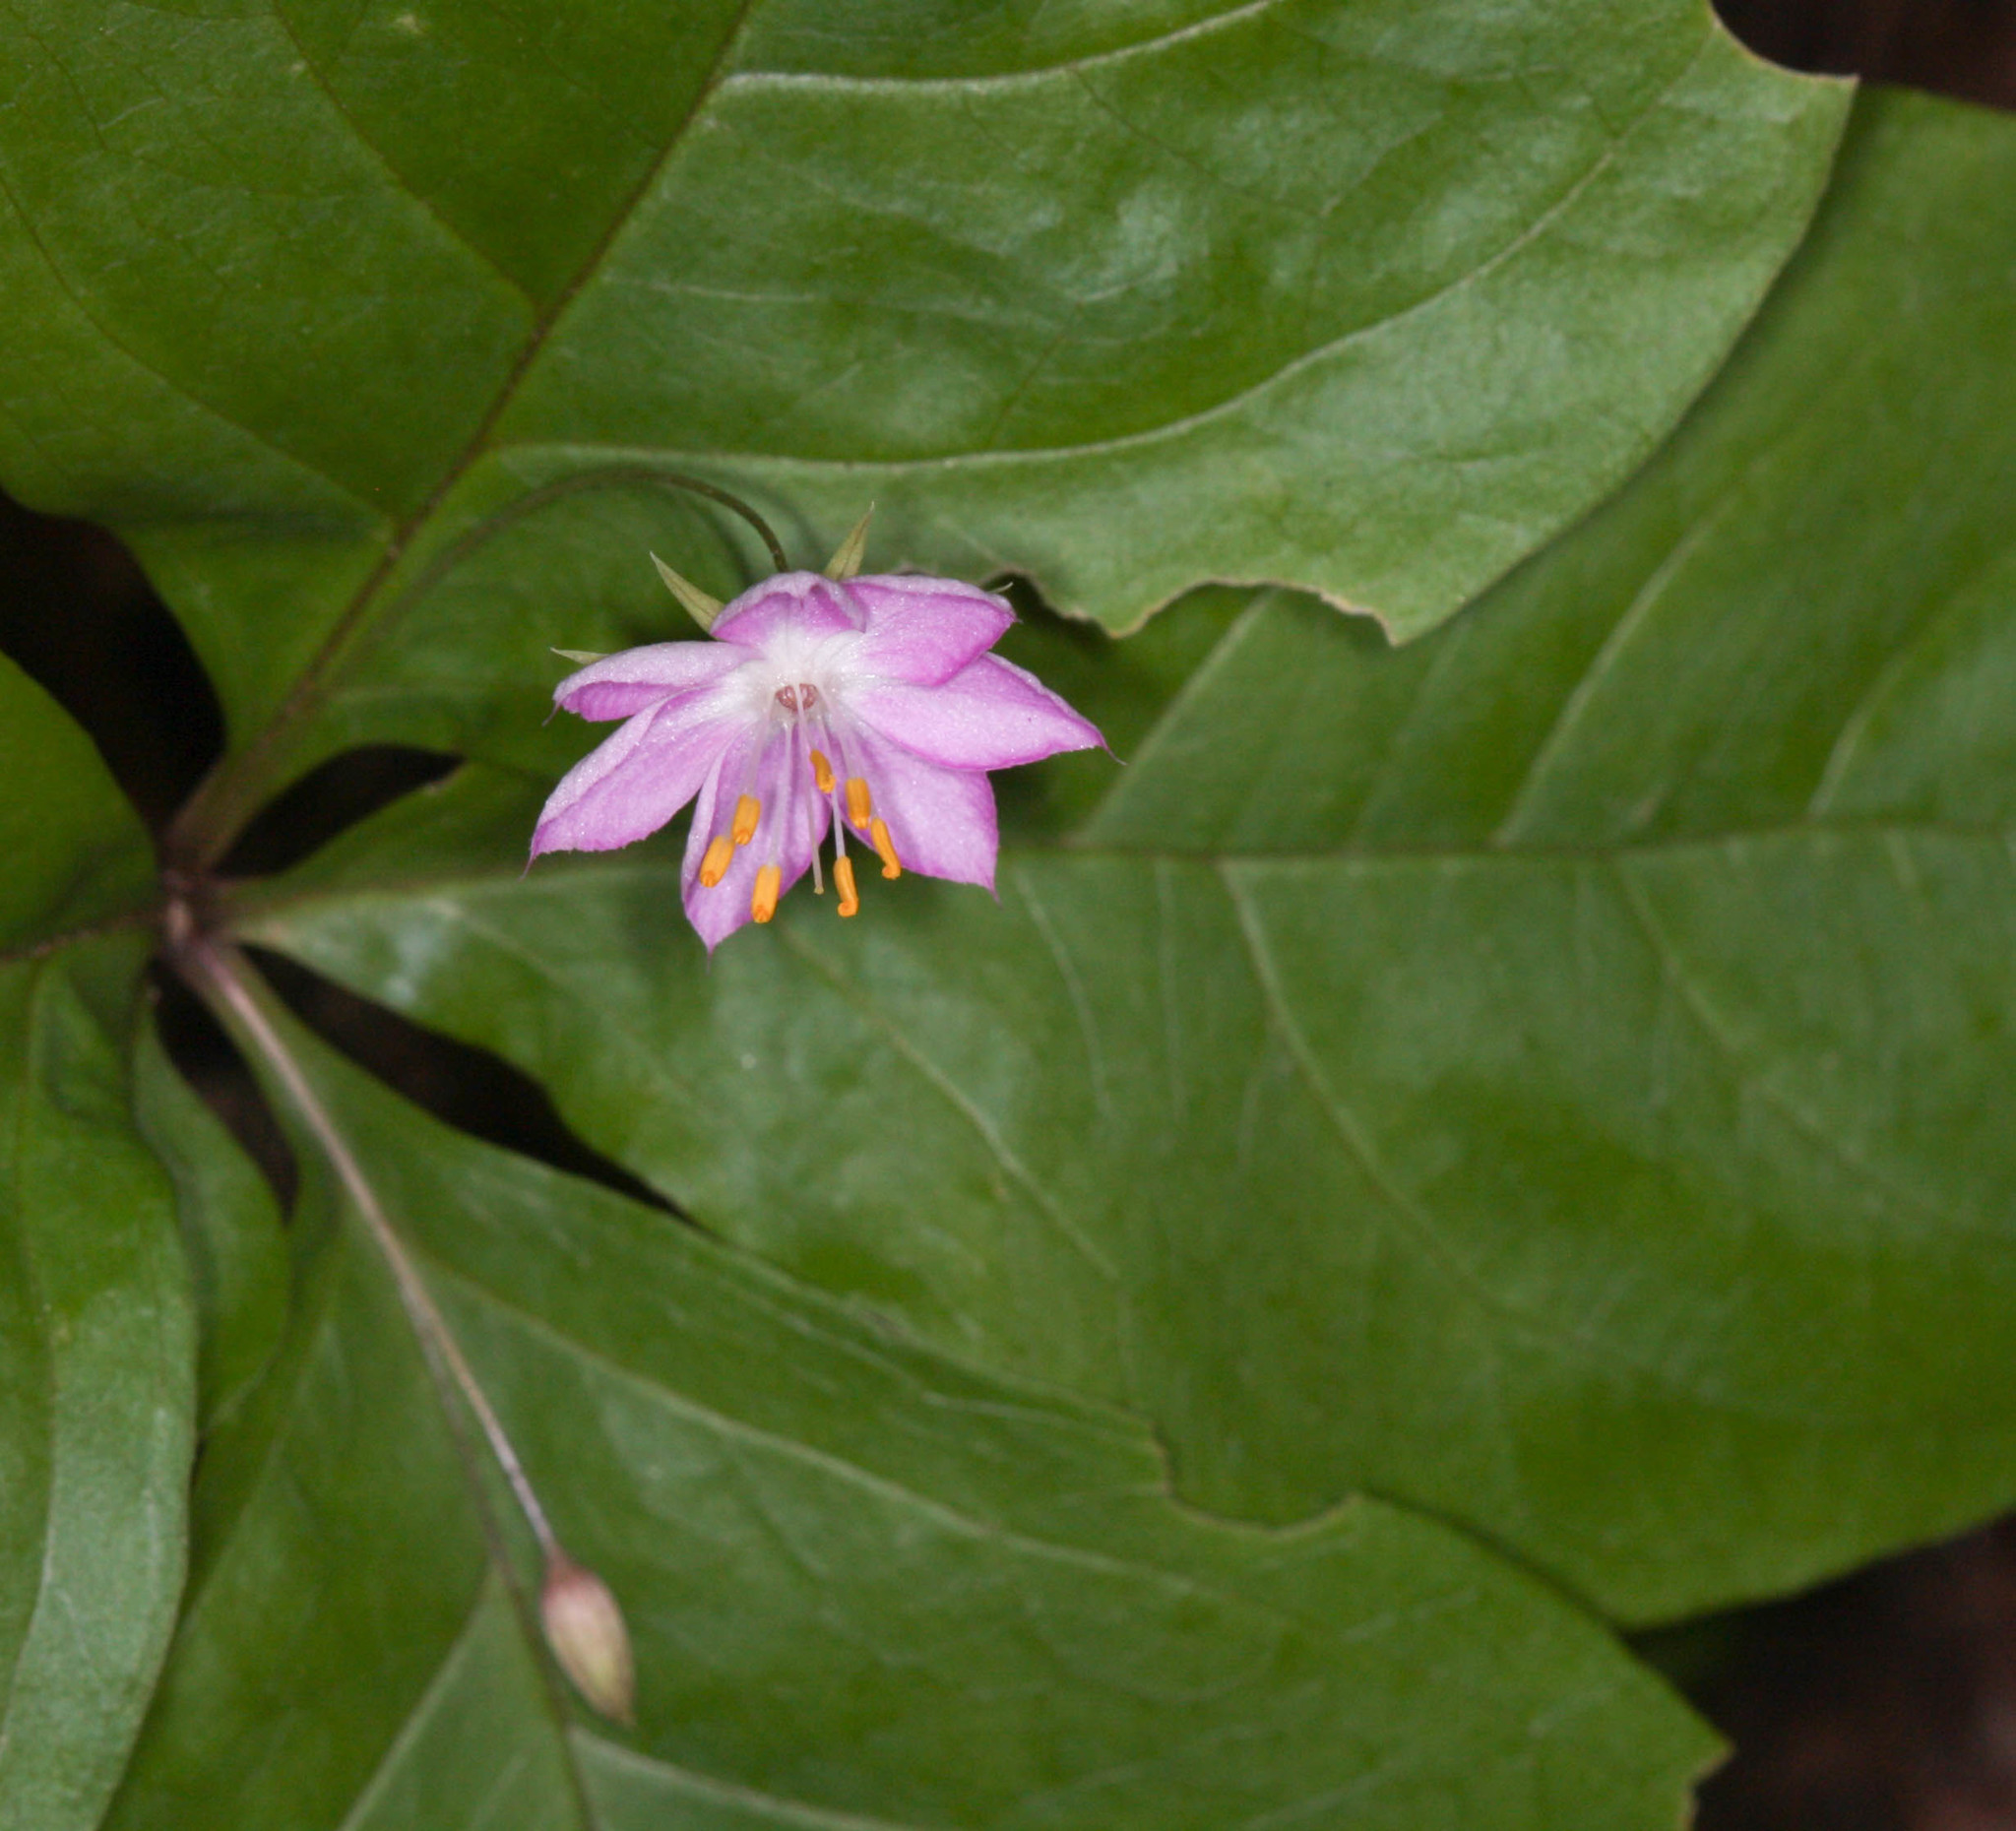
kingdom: Plantae
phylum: Tracheophyta
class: Magnoliopsida
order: Ericales
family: Primulaceae
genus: Lysimachia
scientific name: Lysimachia latifolia
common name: Pacific starflower
